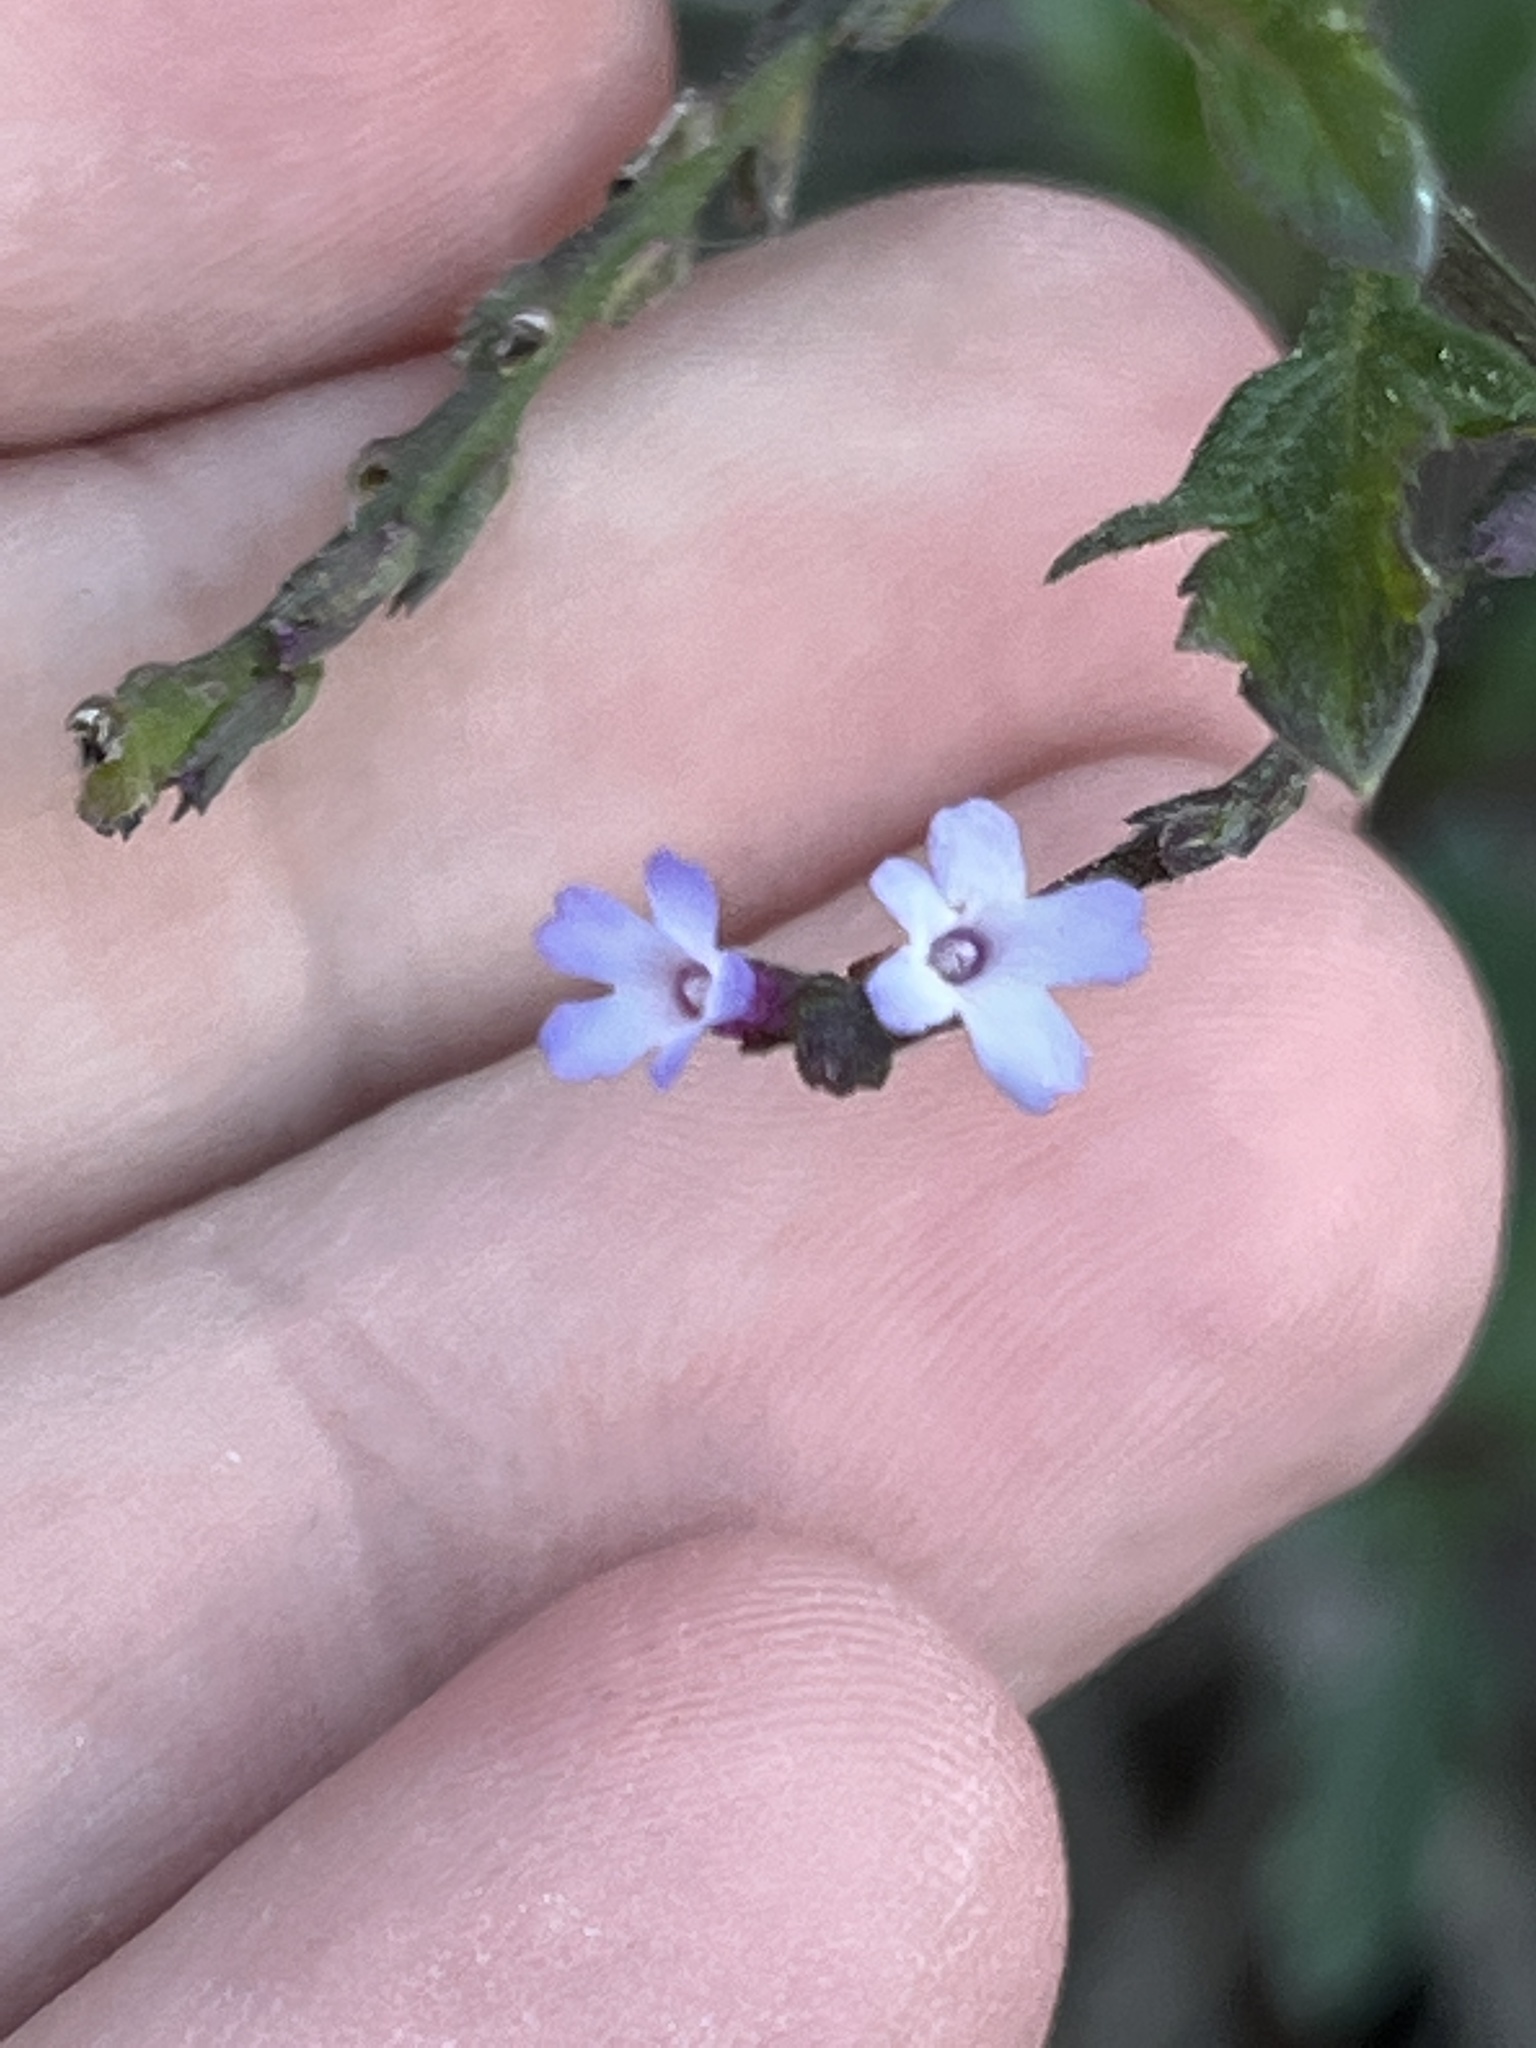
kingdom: Plantae
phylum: Tracheophyta
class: Magnoliopsida
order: Lamiales
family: Verbenaceae
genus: Verbena
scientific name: Verbena menthifolia
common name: Mint-leaf vervain
